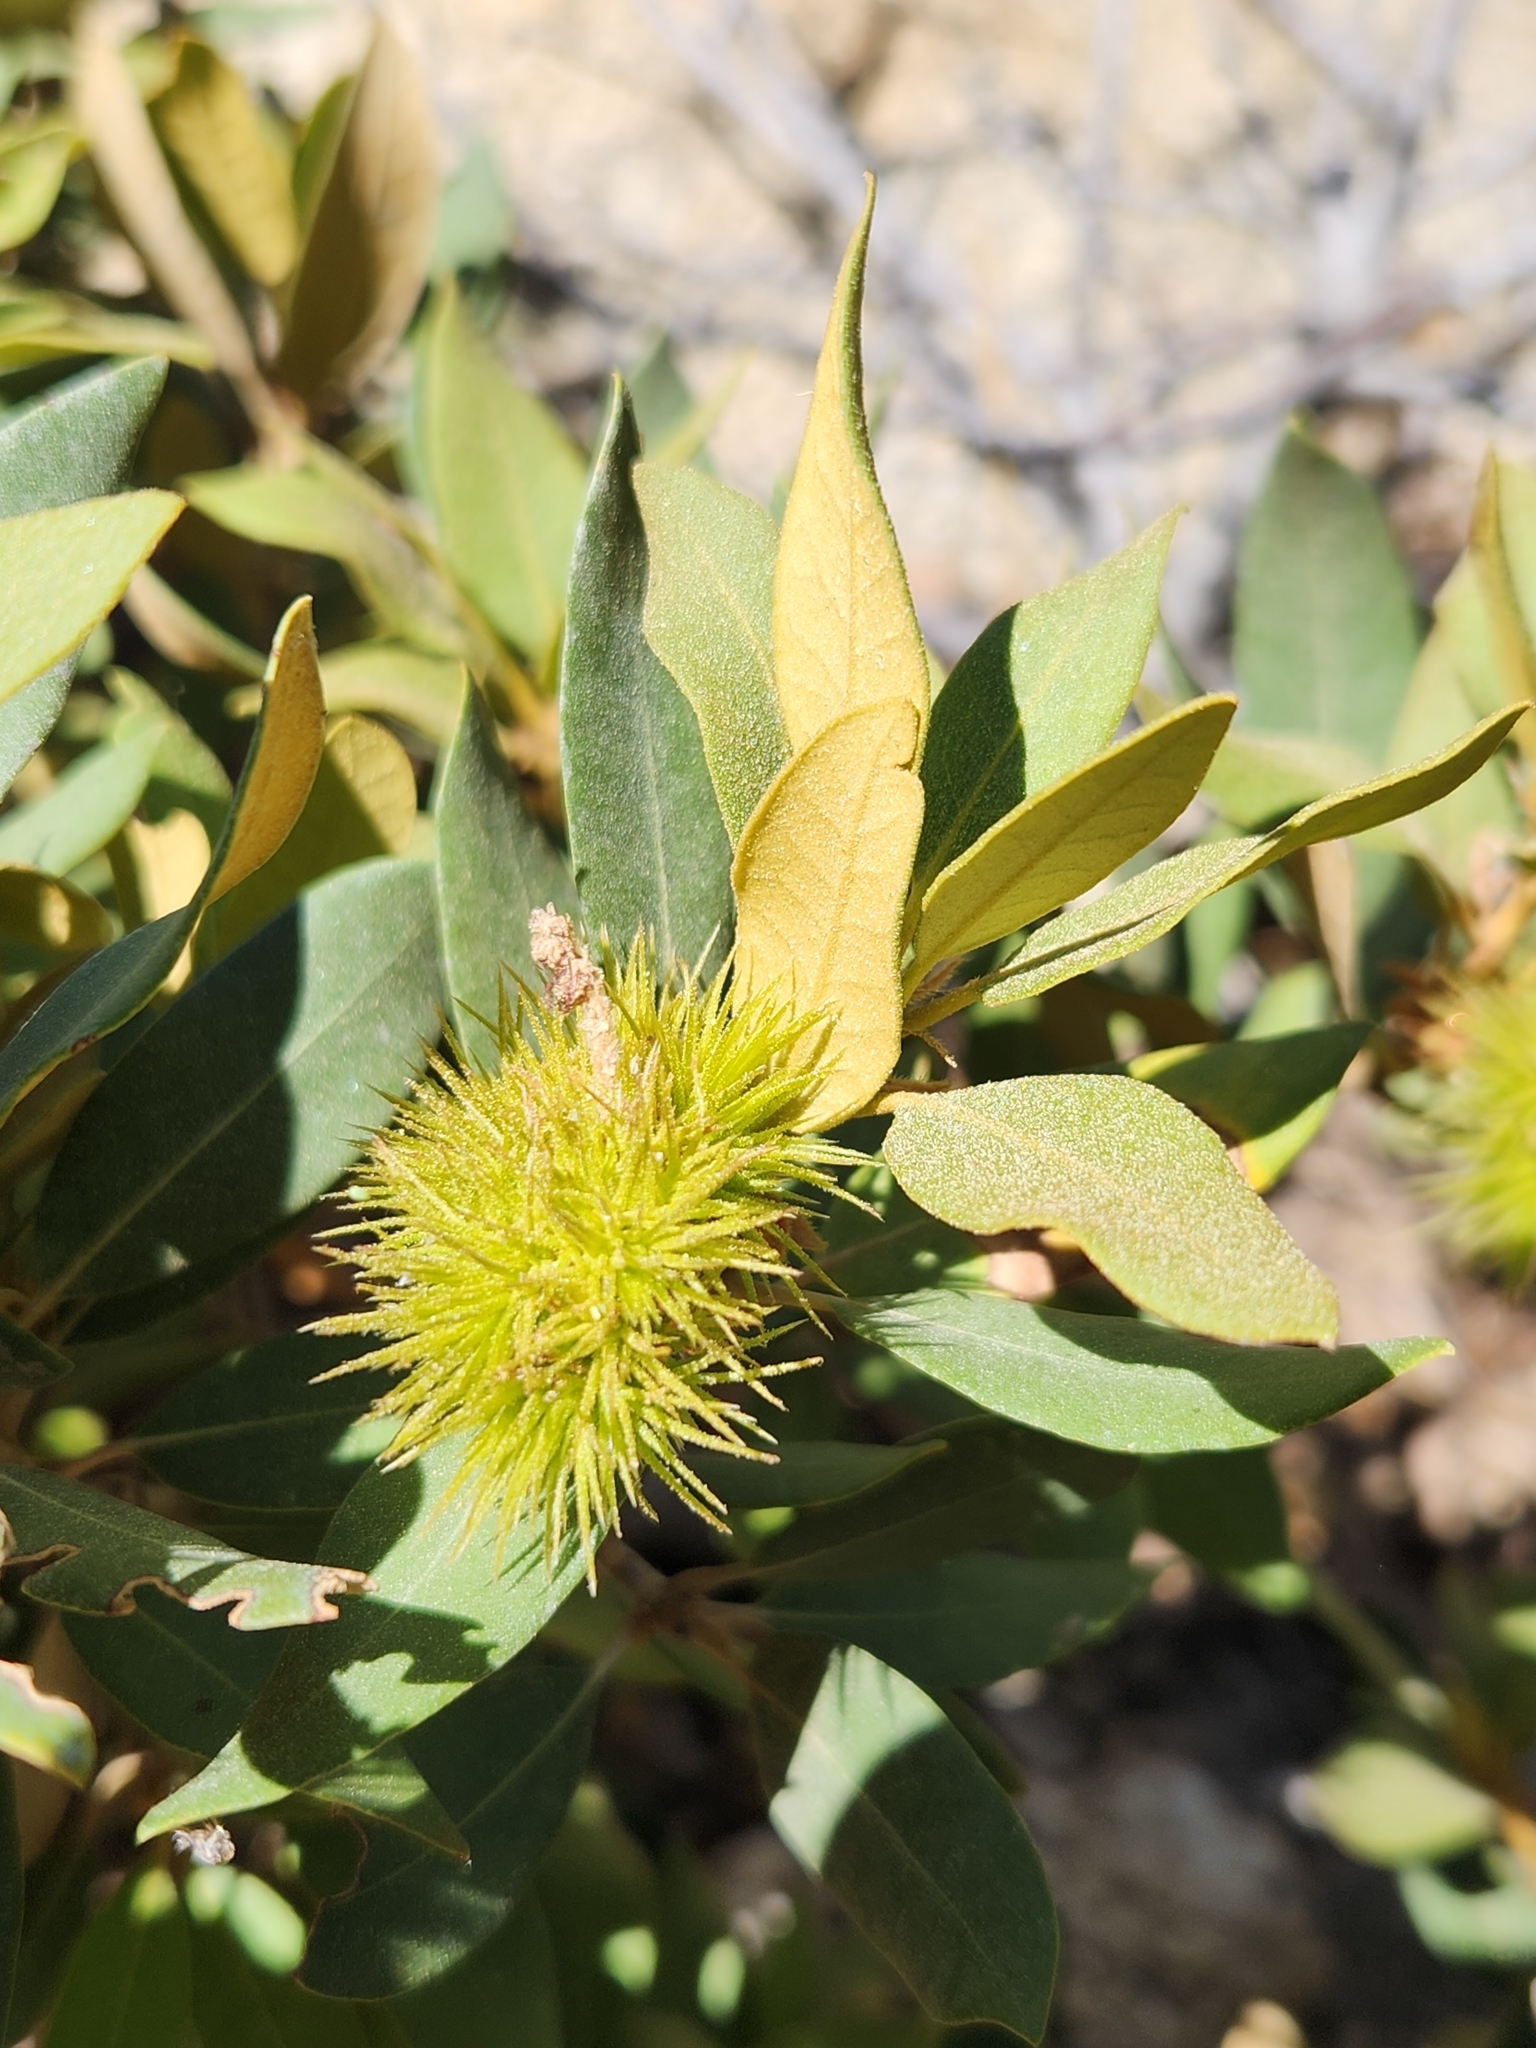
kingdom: Plantae
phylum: Tracheophyta
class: Magnoliopsida
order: Fagales
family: Fagaceae
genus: Chrysolepis
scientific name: Chrysolepis sempervirens
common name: Bush chinquapin
